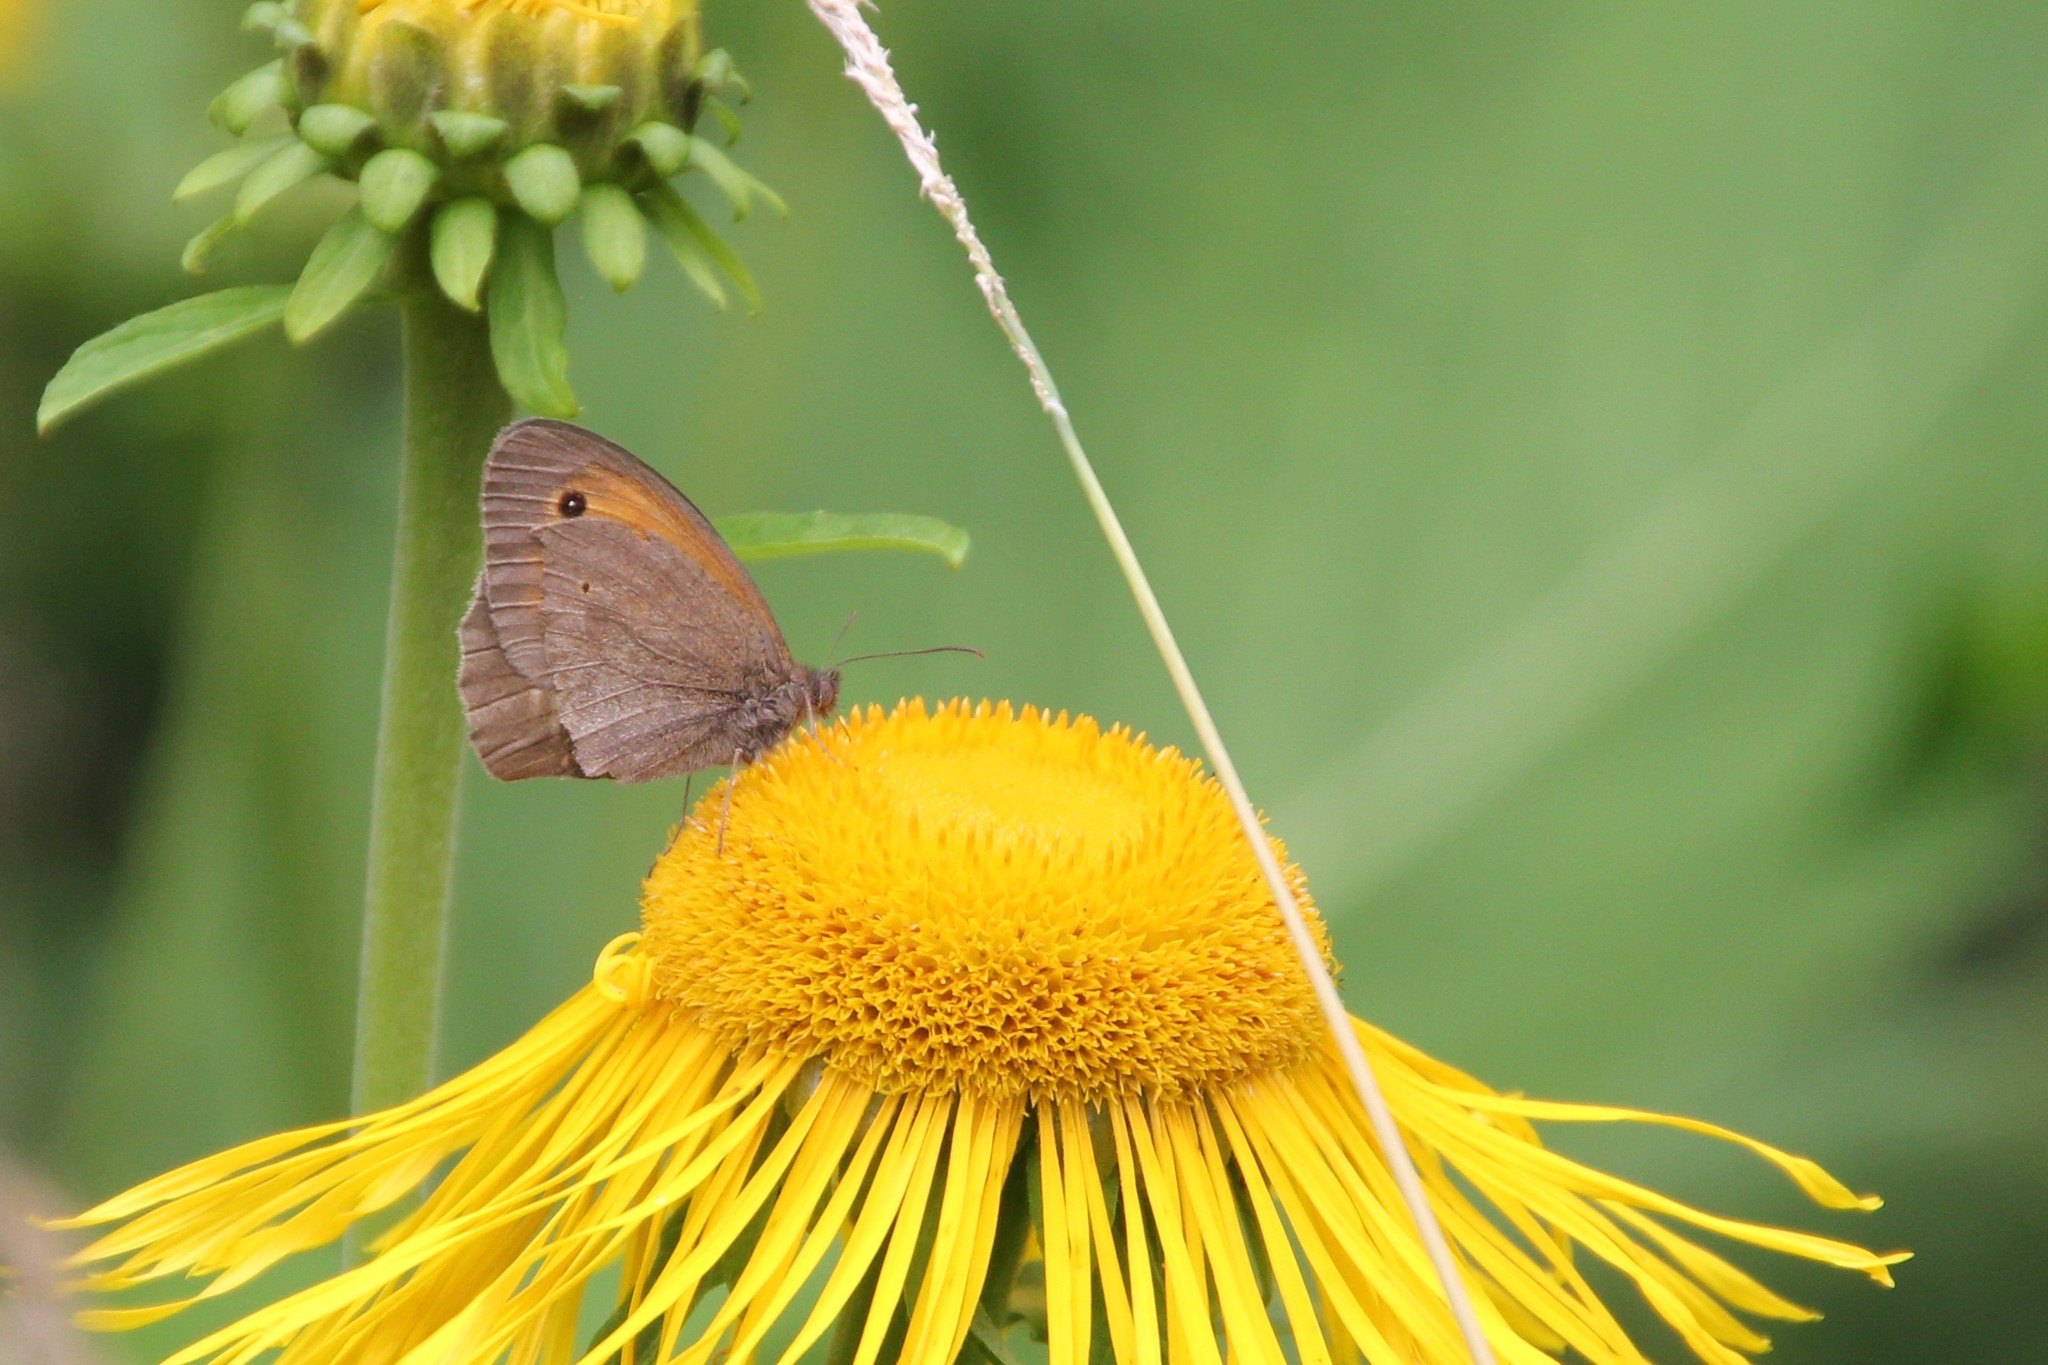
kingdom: Animalia
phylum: Arthropoda
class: Insecta
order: Lepidoptera
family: Nymphalidae
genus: Maniola
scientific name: Maniola jurtina
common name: Meadow brown
